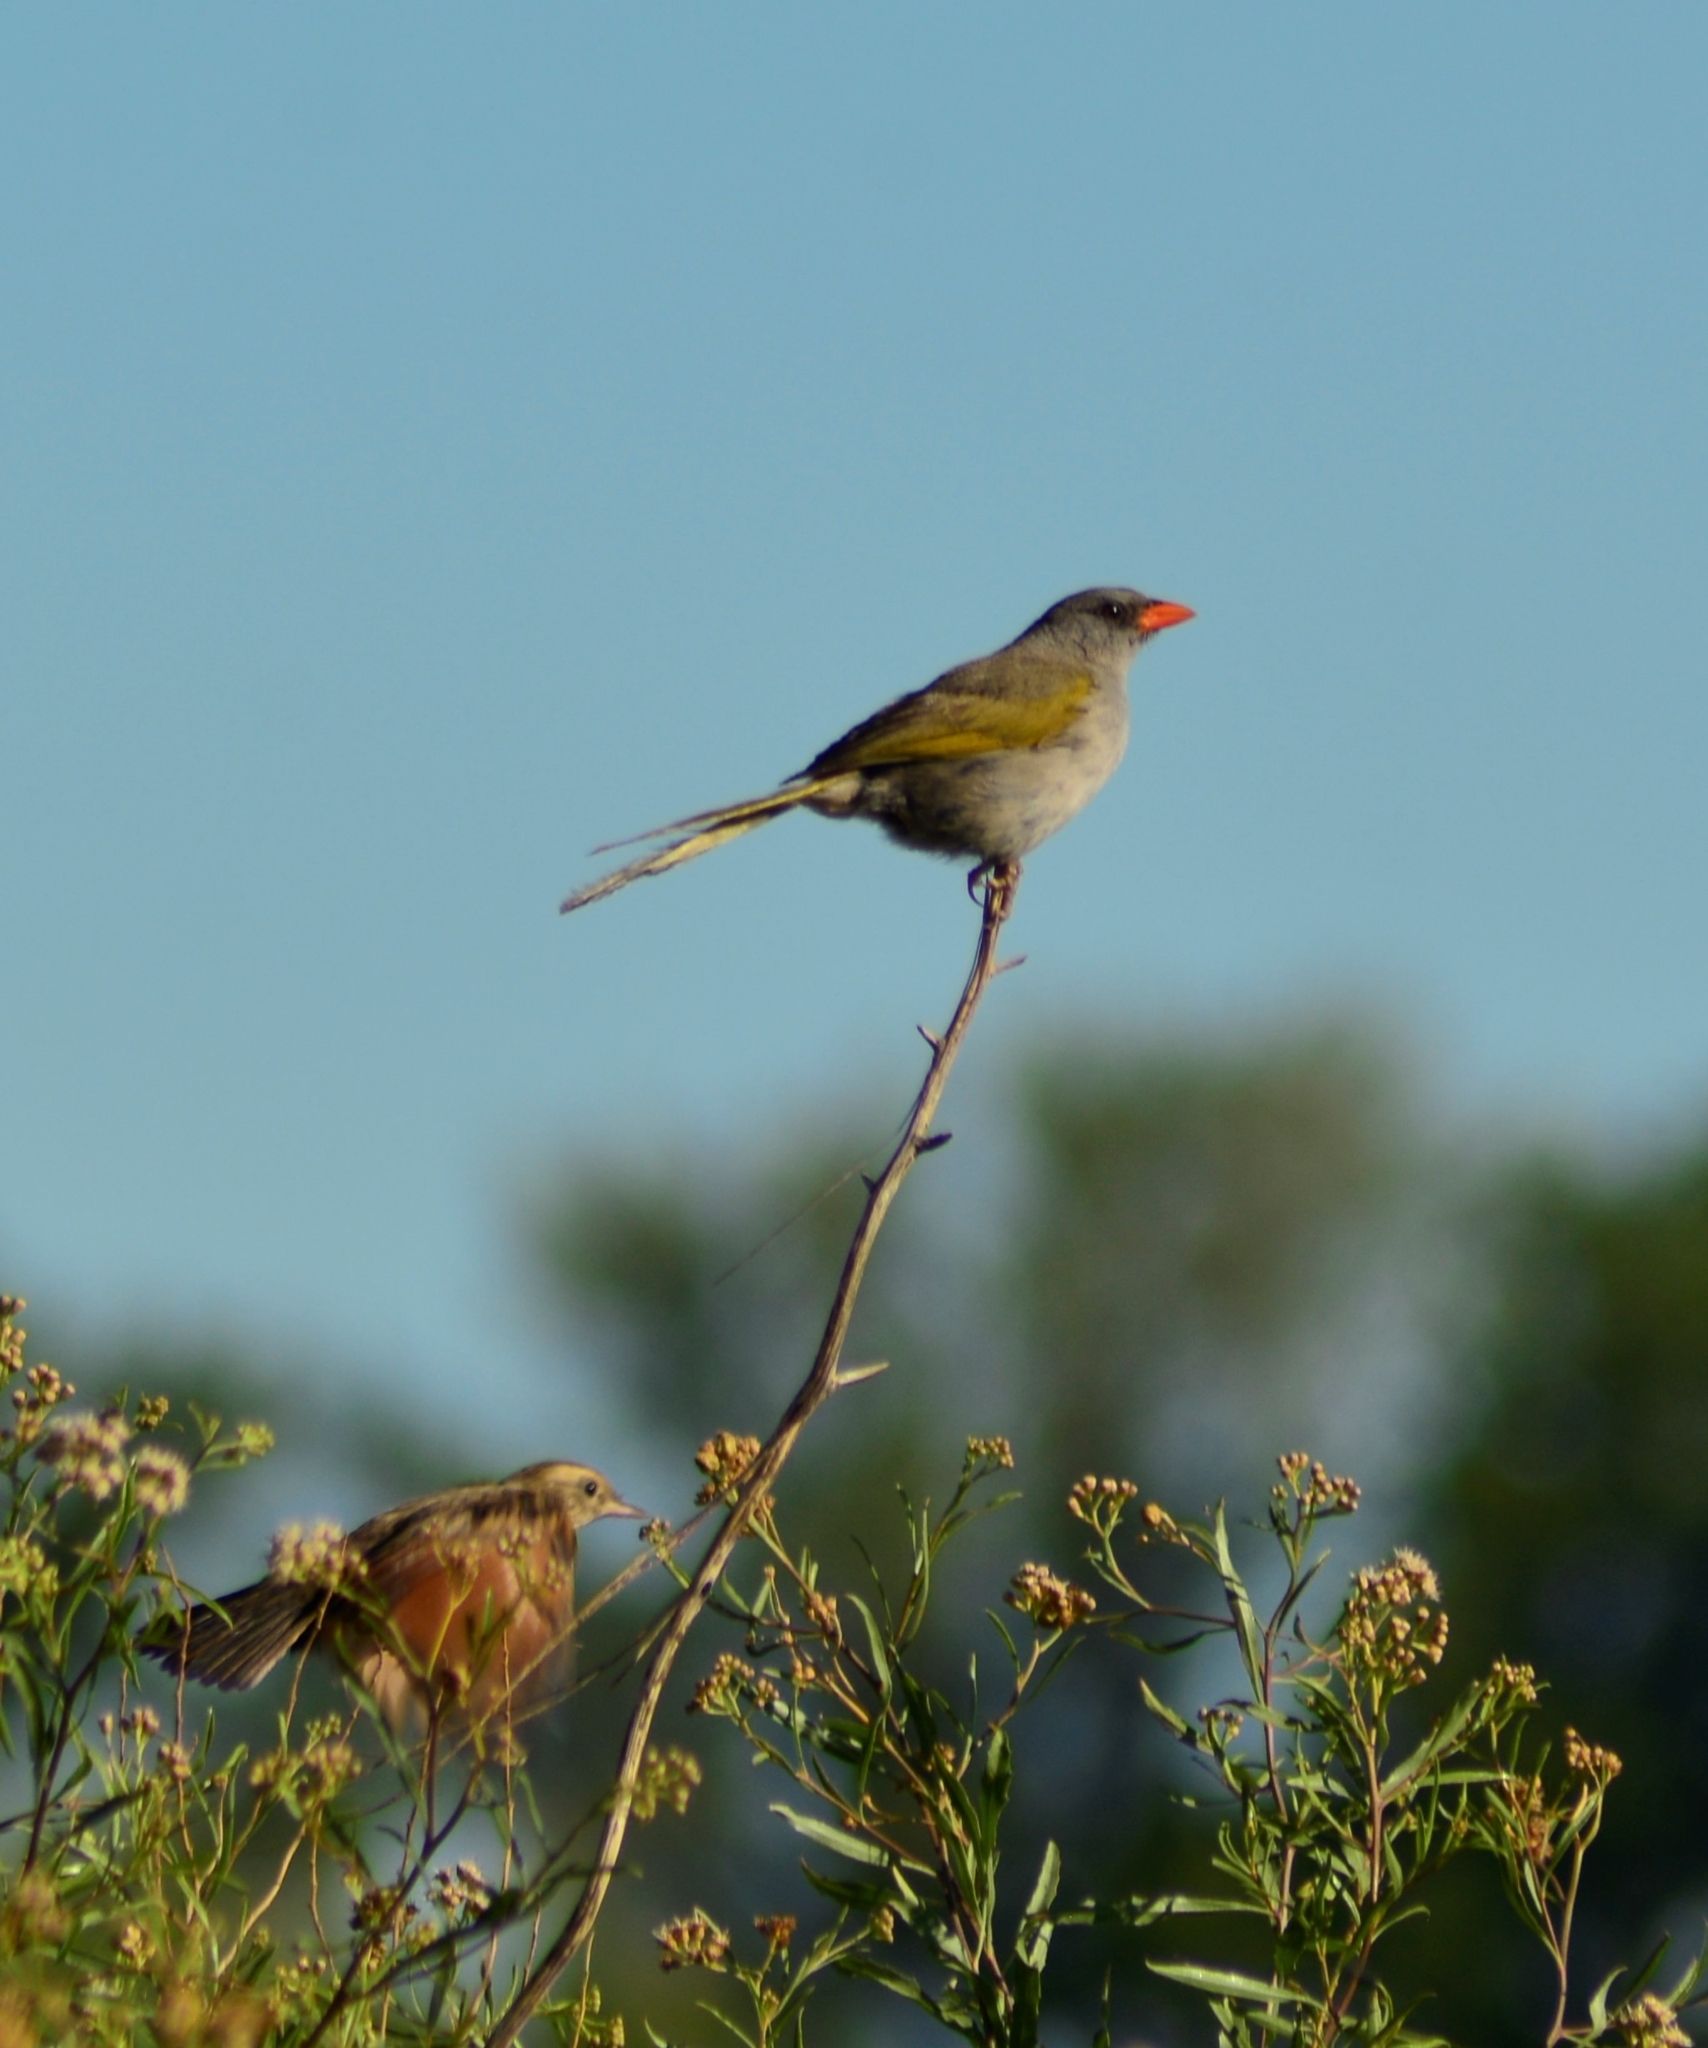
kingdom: Animalia
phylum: Chordata
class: Aves
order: Passeriformes
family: Thraupidae
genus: Embernagra
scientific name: Embernagra platensis
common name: Pampa finch
